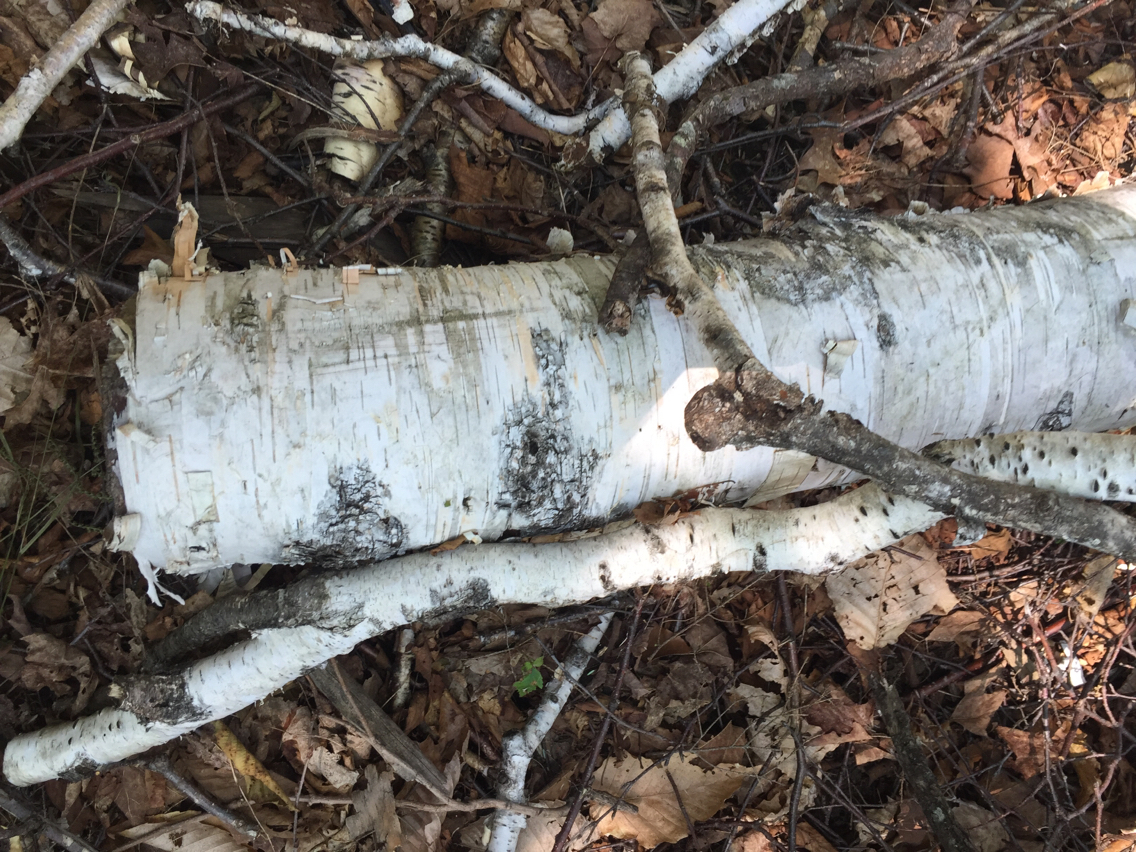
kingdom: Plantae
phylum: Tracheophyta
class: Magnoliopsida
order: Fagales
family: Betulaceae
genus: Betula
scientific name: Betula papyrifera
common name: Paper birch
